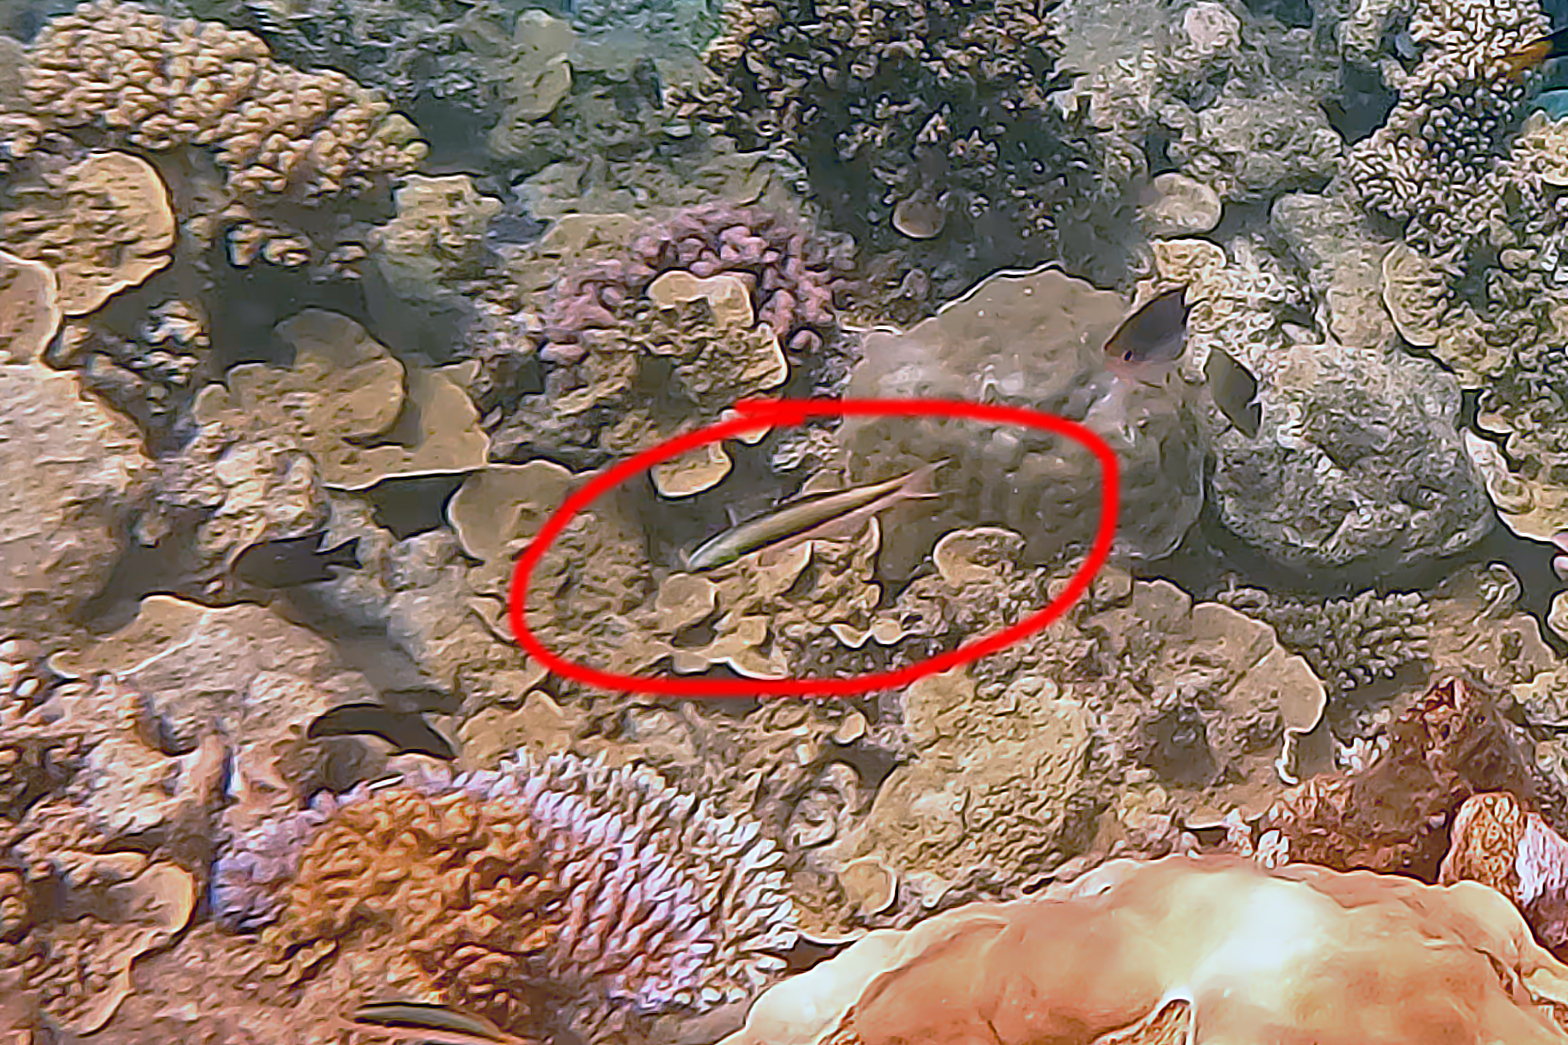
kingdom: Animalia
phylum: Chordata
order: Perciformes
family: Labridae
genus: Thalassoma
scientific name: Thalassoma amblycephalum
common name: Bluehead wrasse
